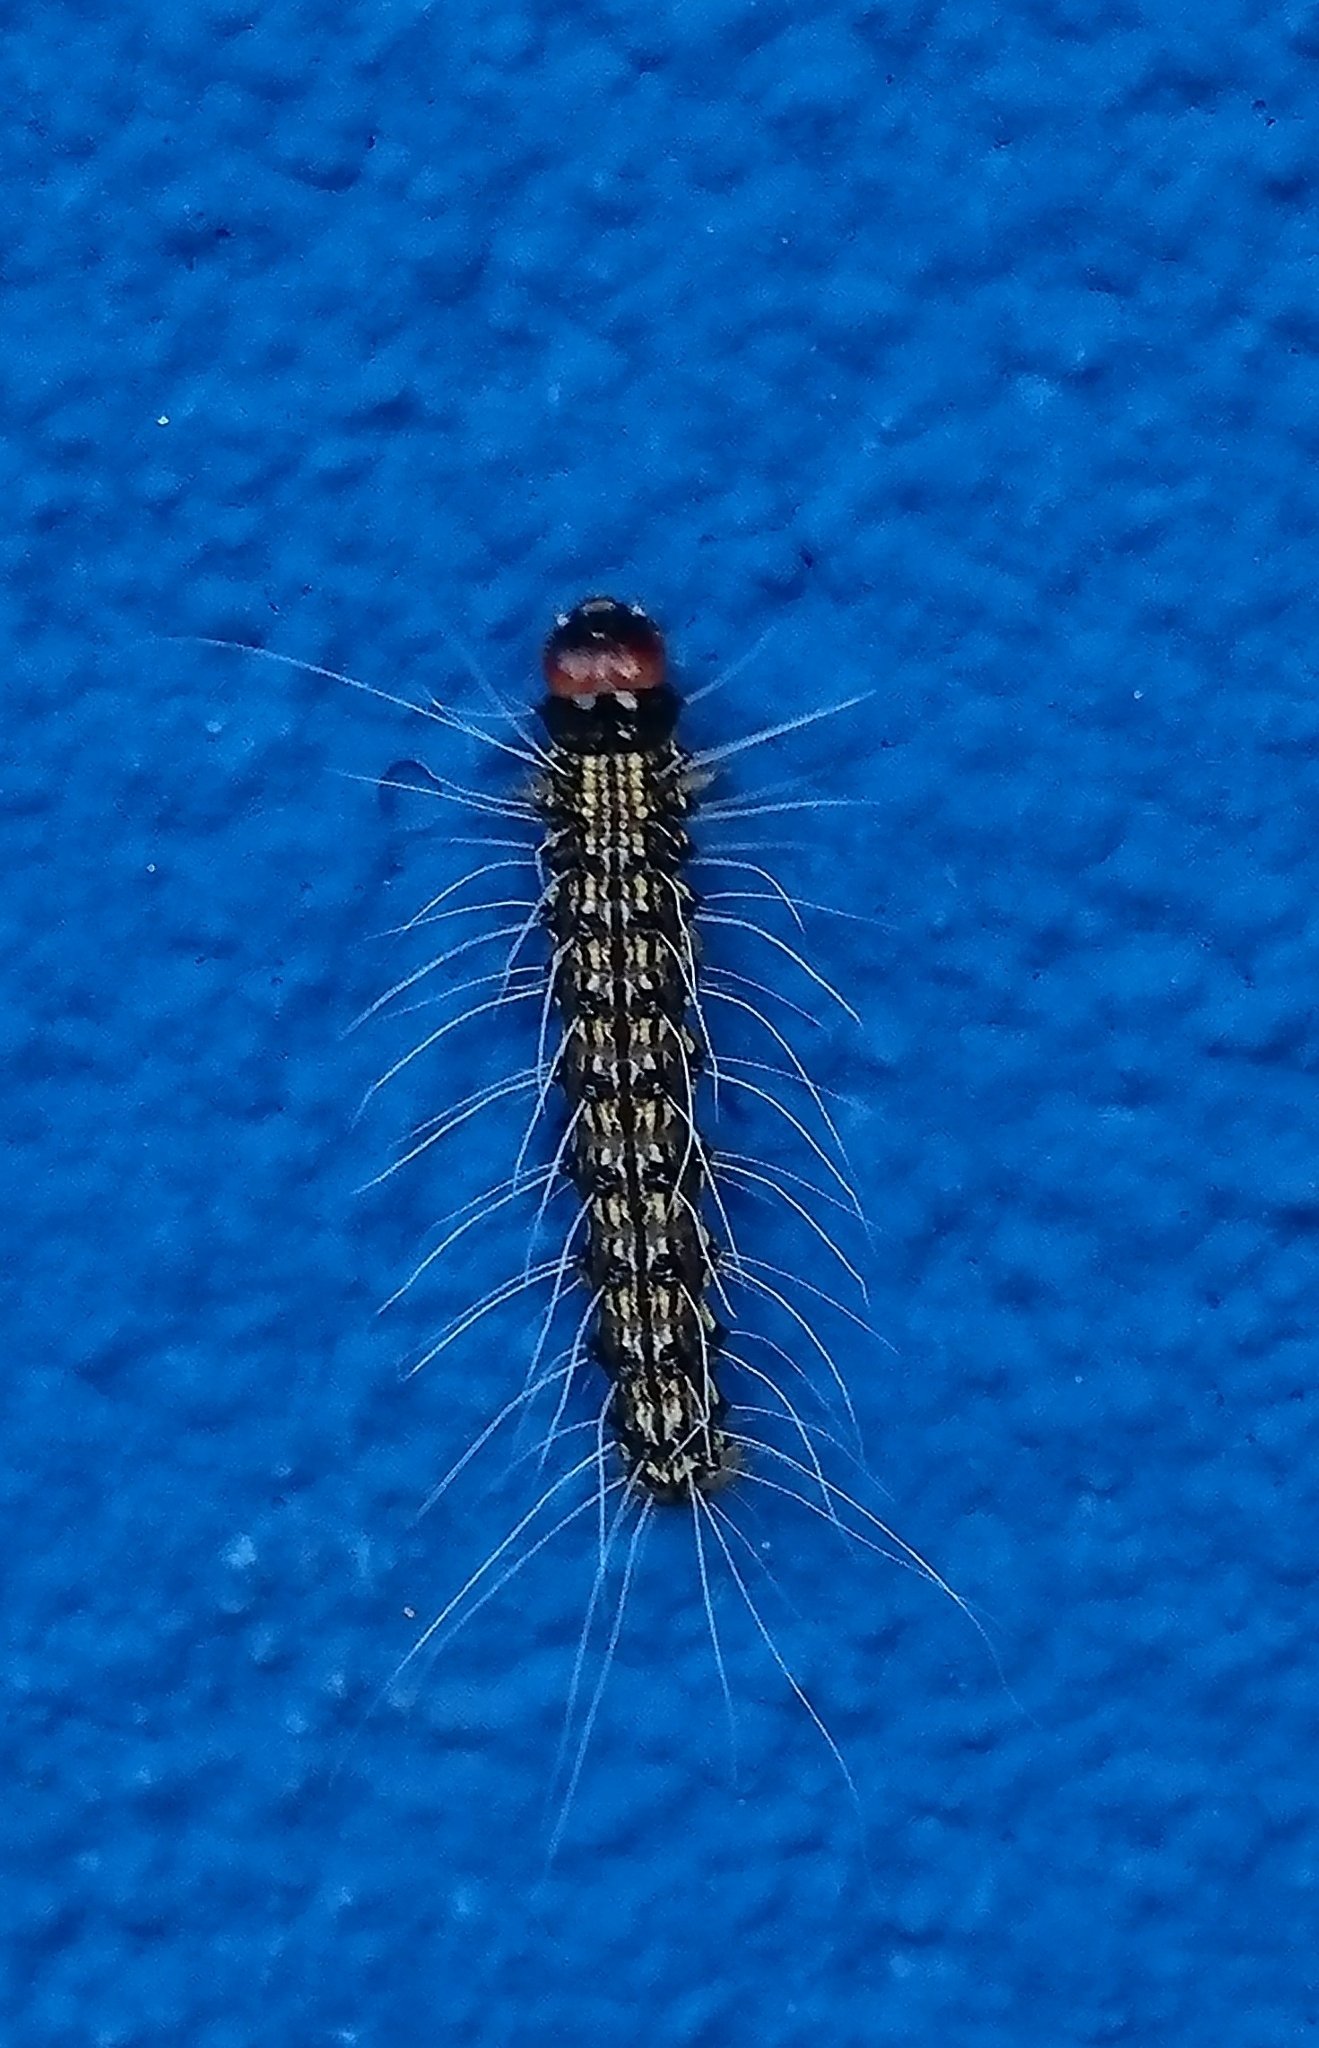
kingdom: Animalia
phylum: Arthropoda
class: Insecta
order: Lepidoptera
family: Erebidae
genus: Litoprosopus
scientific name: Litoprosopus futilis
